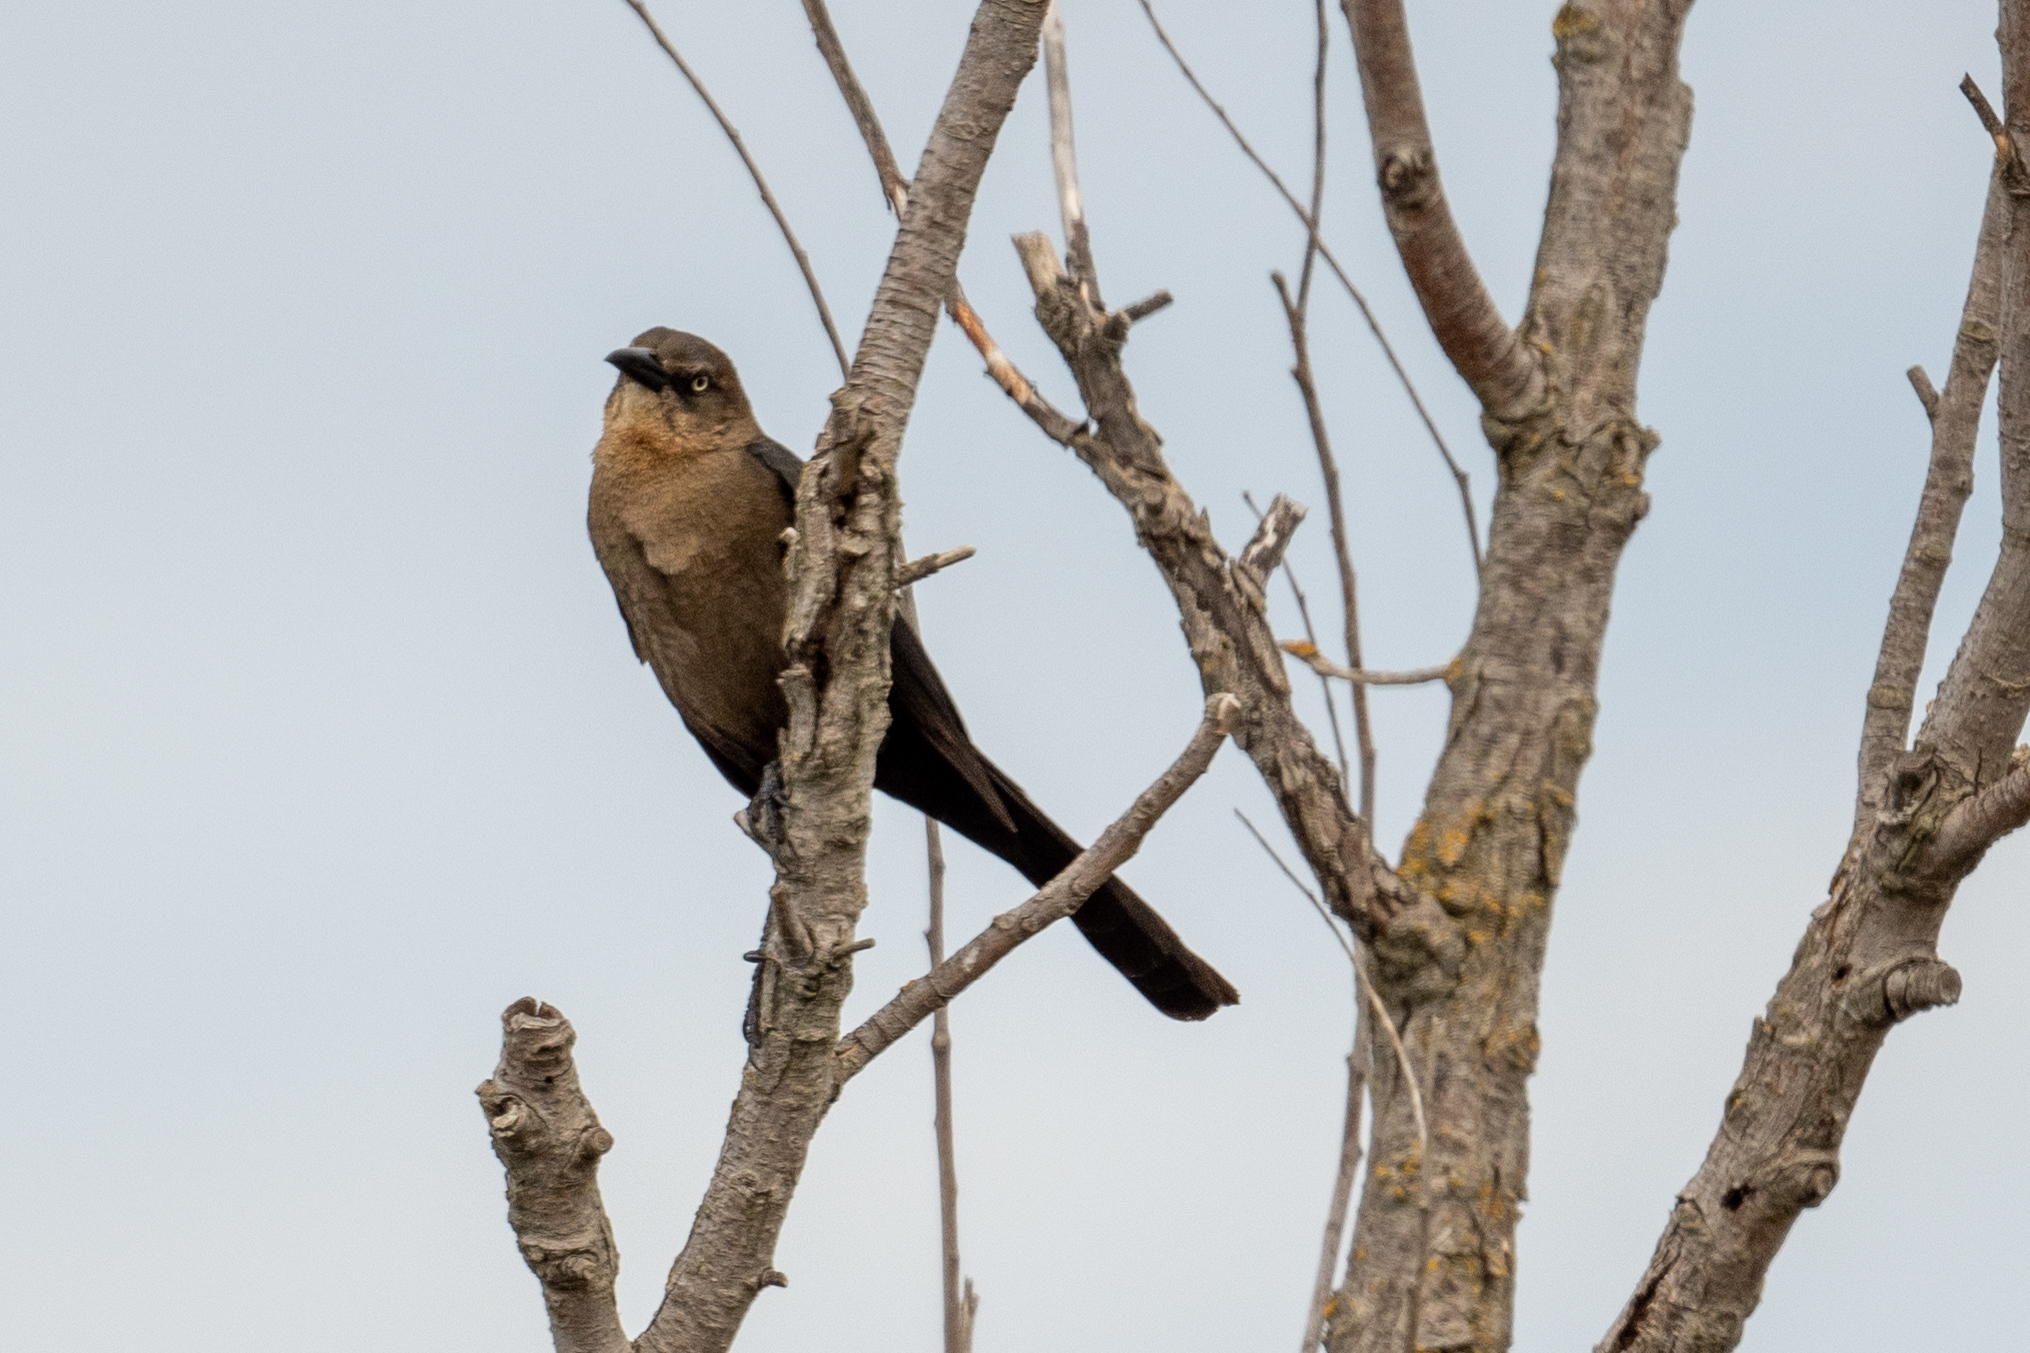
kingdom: Animalia
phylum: Chordata
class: Aves
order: Passeriformes
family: Icteridae
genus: Quiscalus
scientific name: Quiscalus mexicanus
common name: Great-tailed grackle
